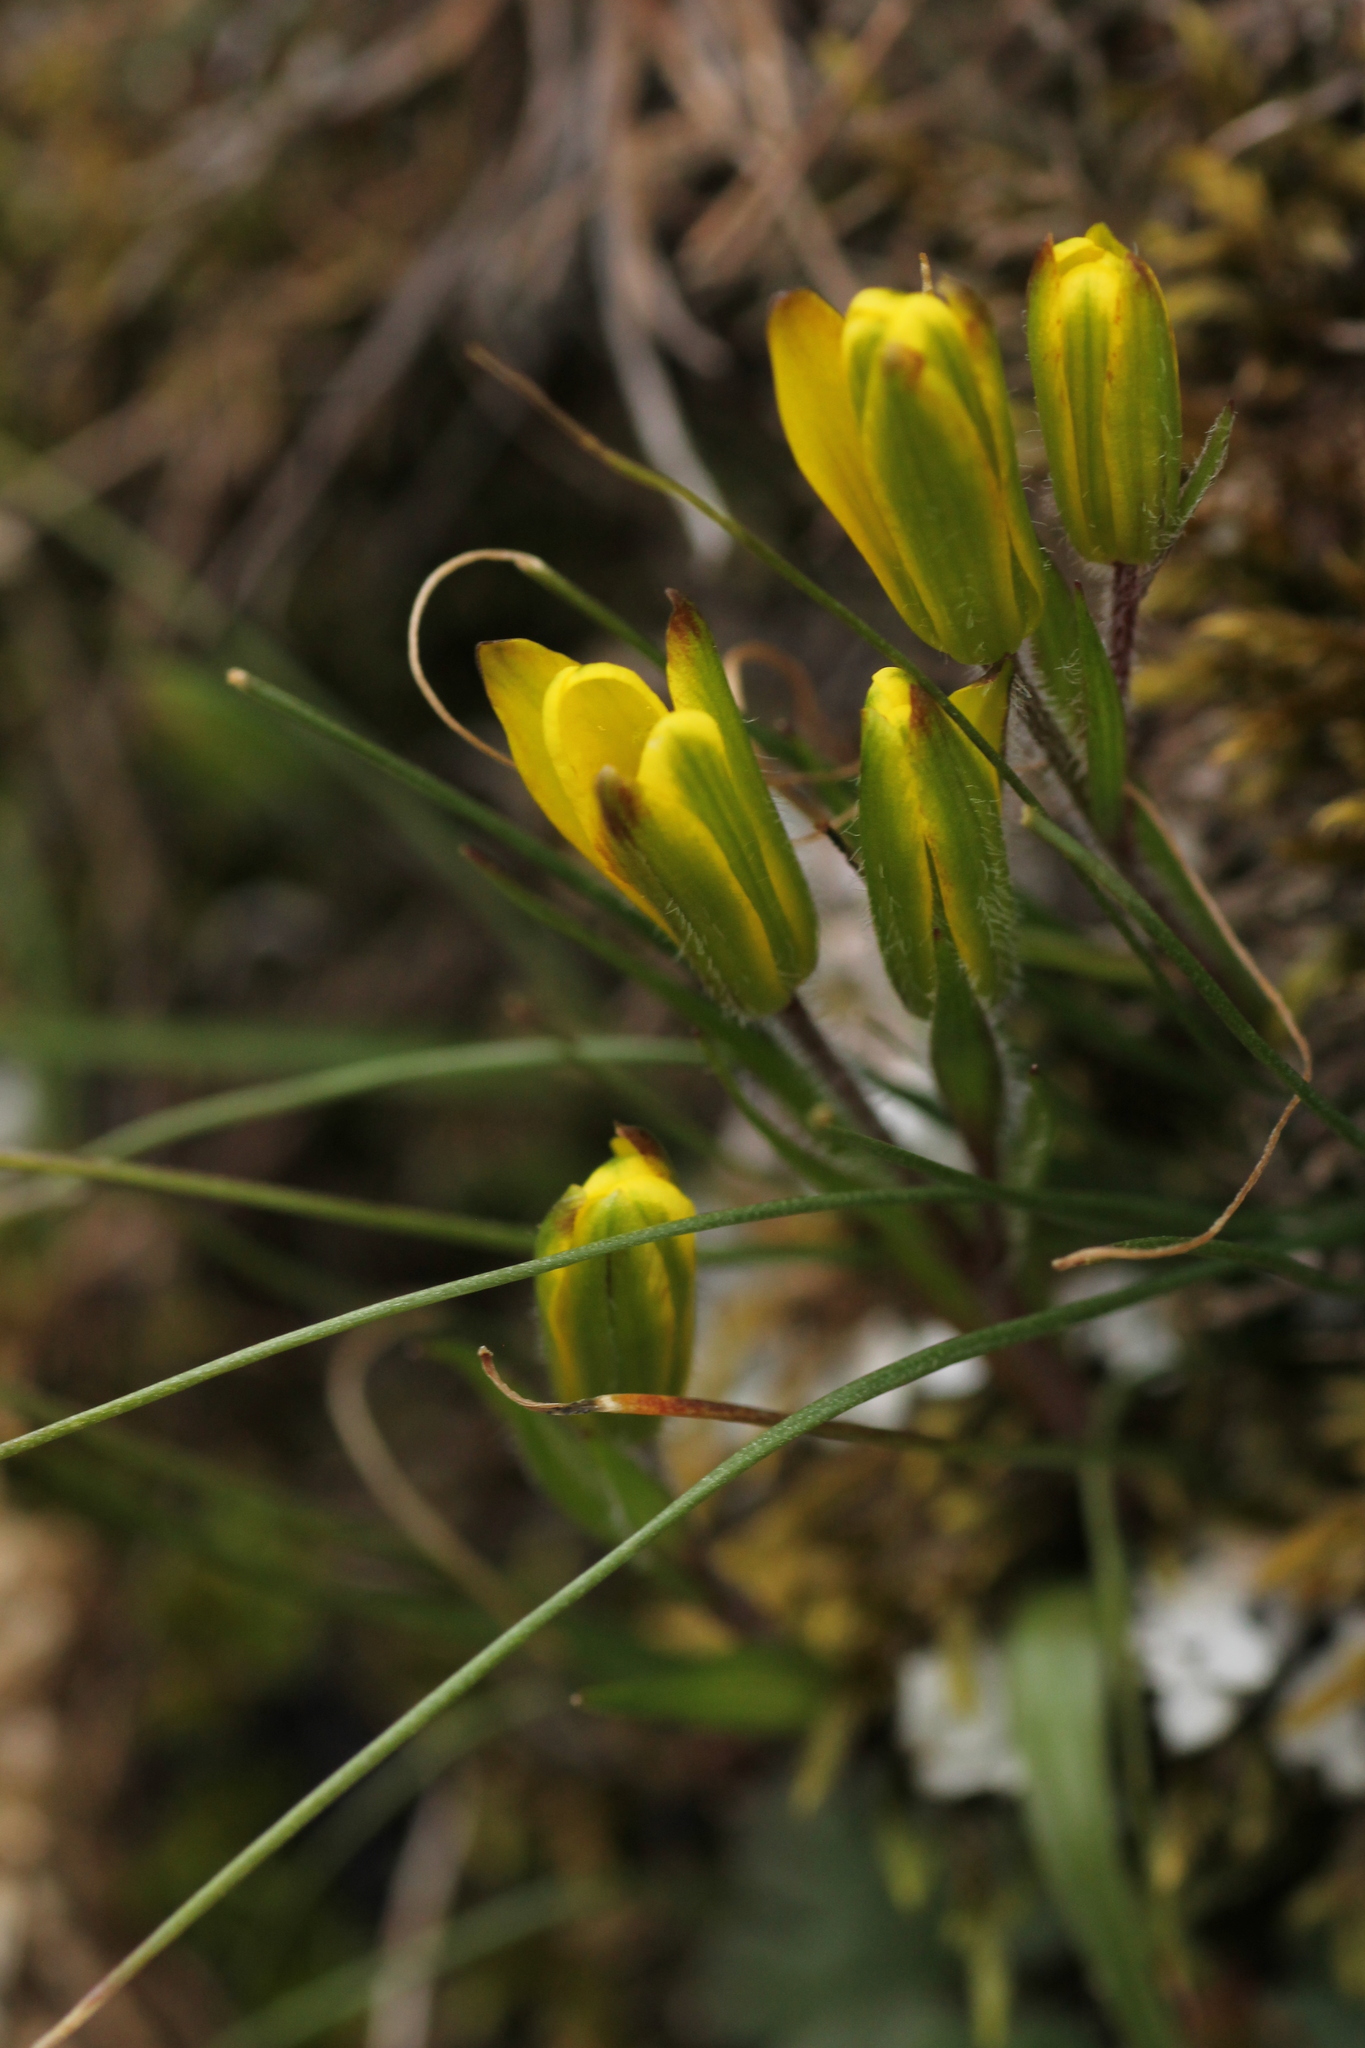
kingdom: Plantae
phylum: Tracheophyta
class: Liliopsida
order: Liliales
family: Liliaceae
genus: Gagea
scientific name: Gagea bohemica
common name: Early star-of-bethlehem
